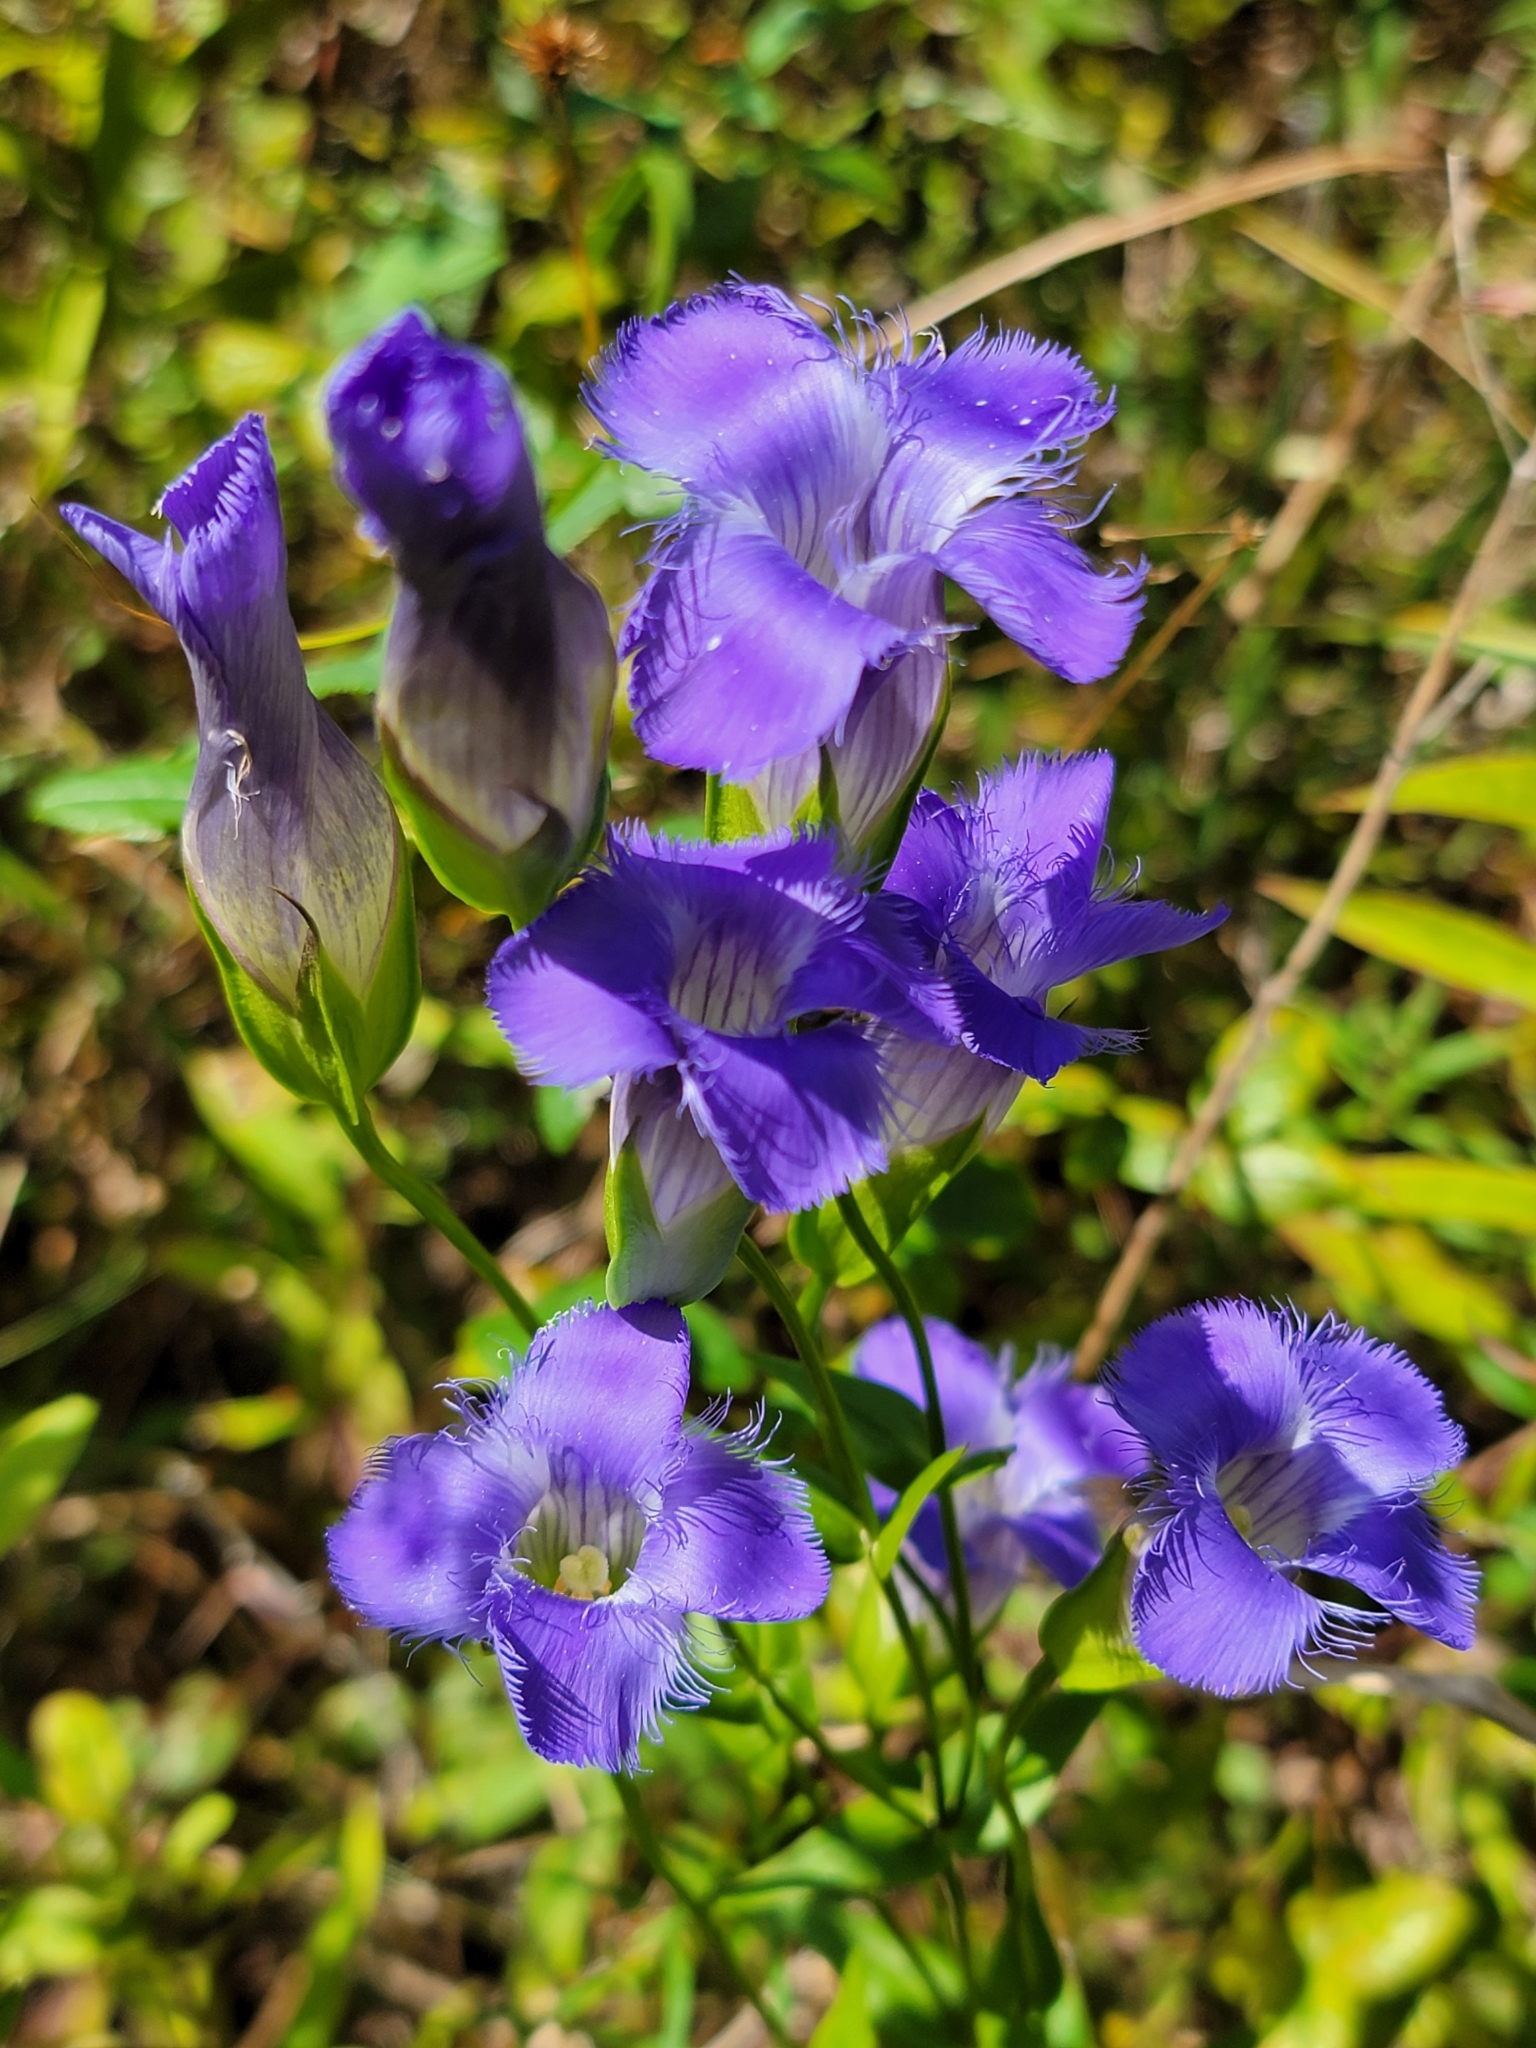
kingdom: Plantae
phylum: Tracheophyta
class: Magnoliopsida
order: Gentianales
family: Gentianaceae
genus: Gentianopsis
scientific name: Gentianopsis crinita
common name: Fringed-gentian
